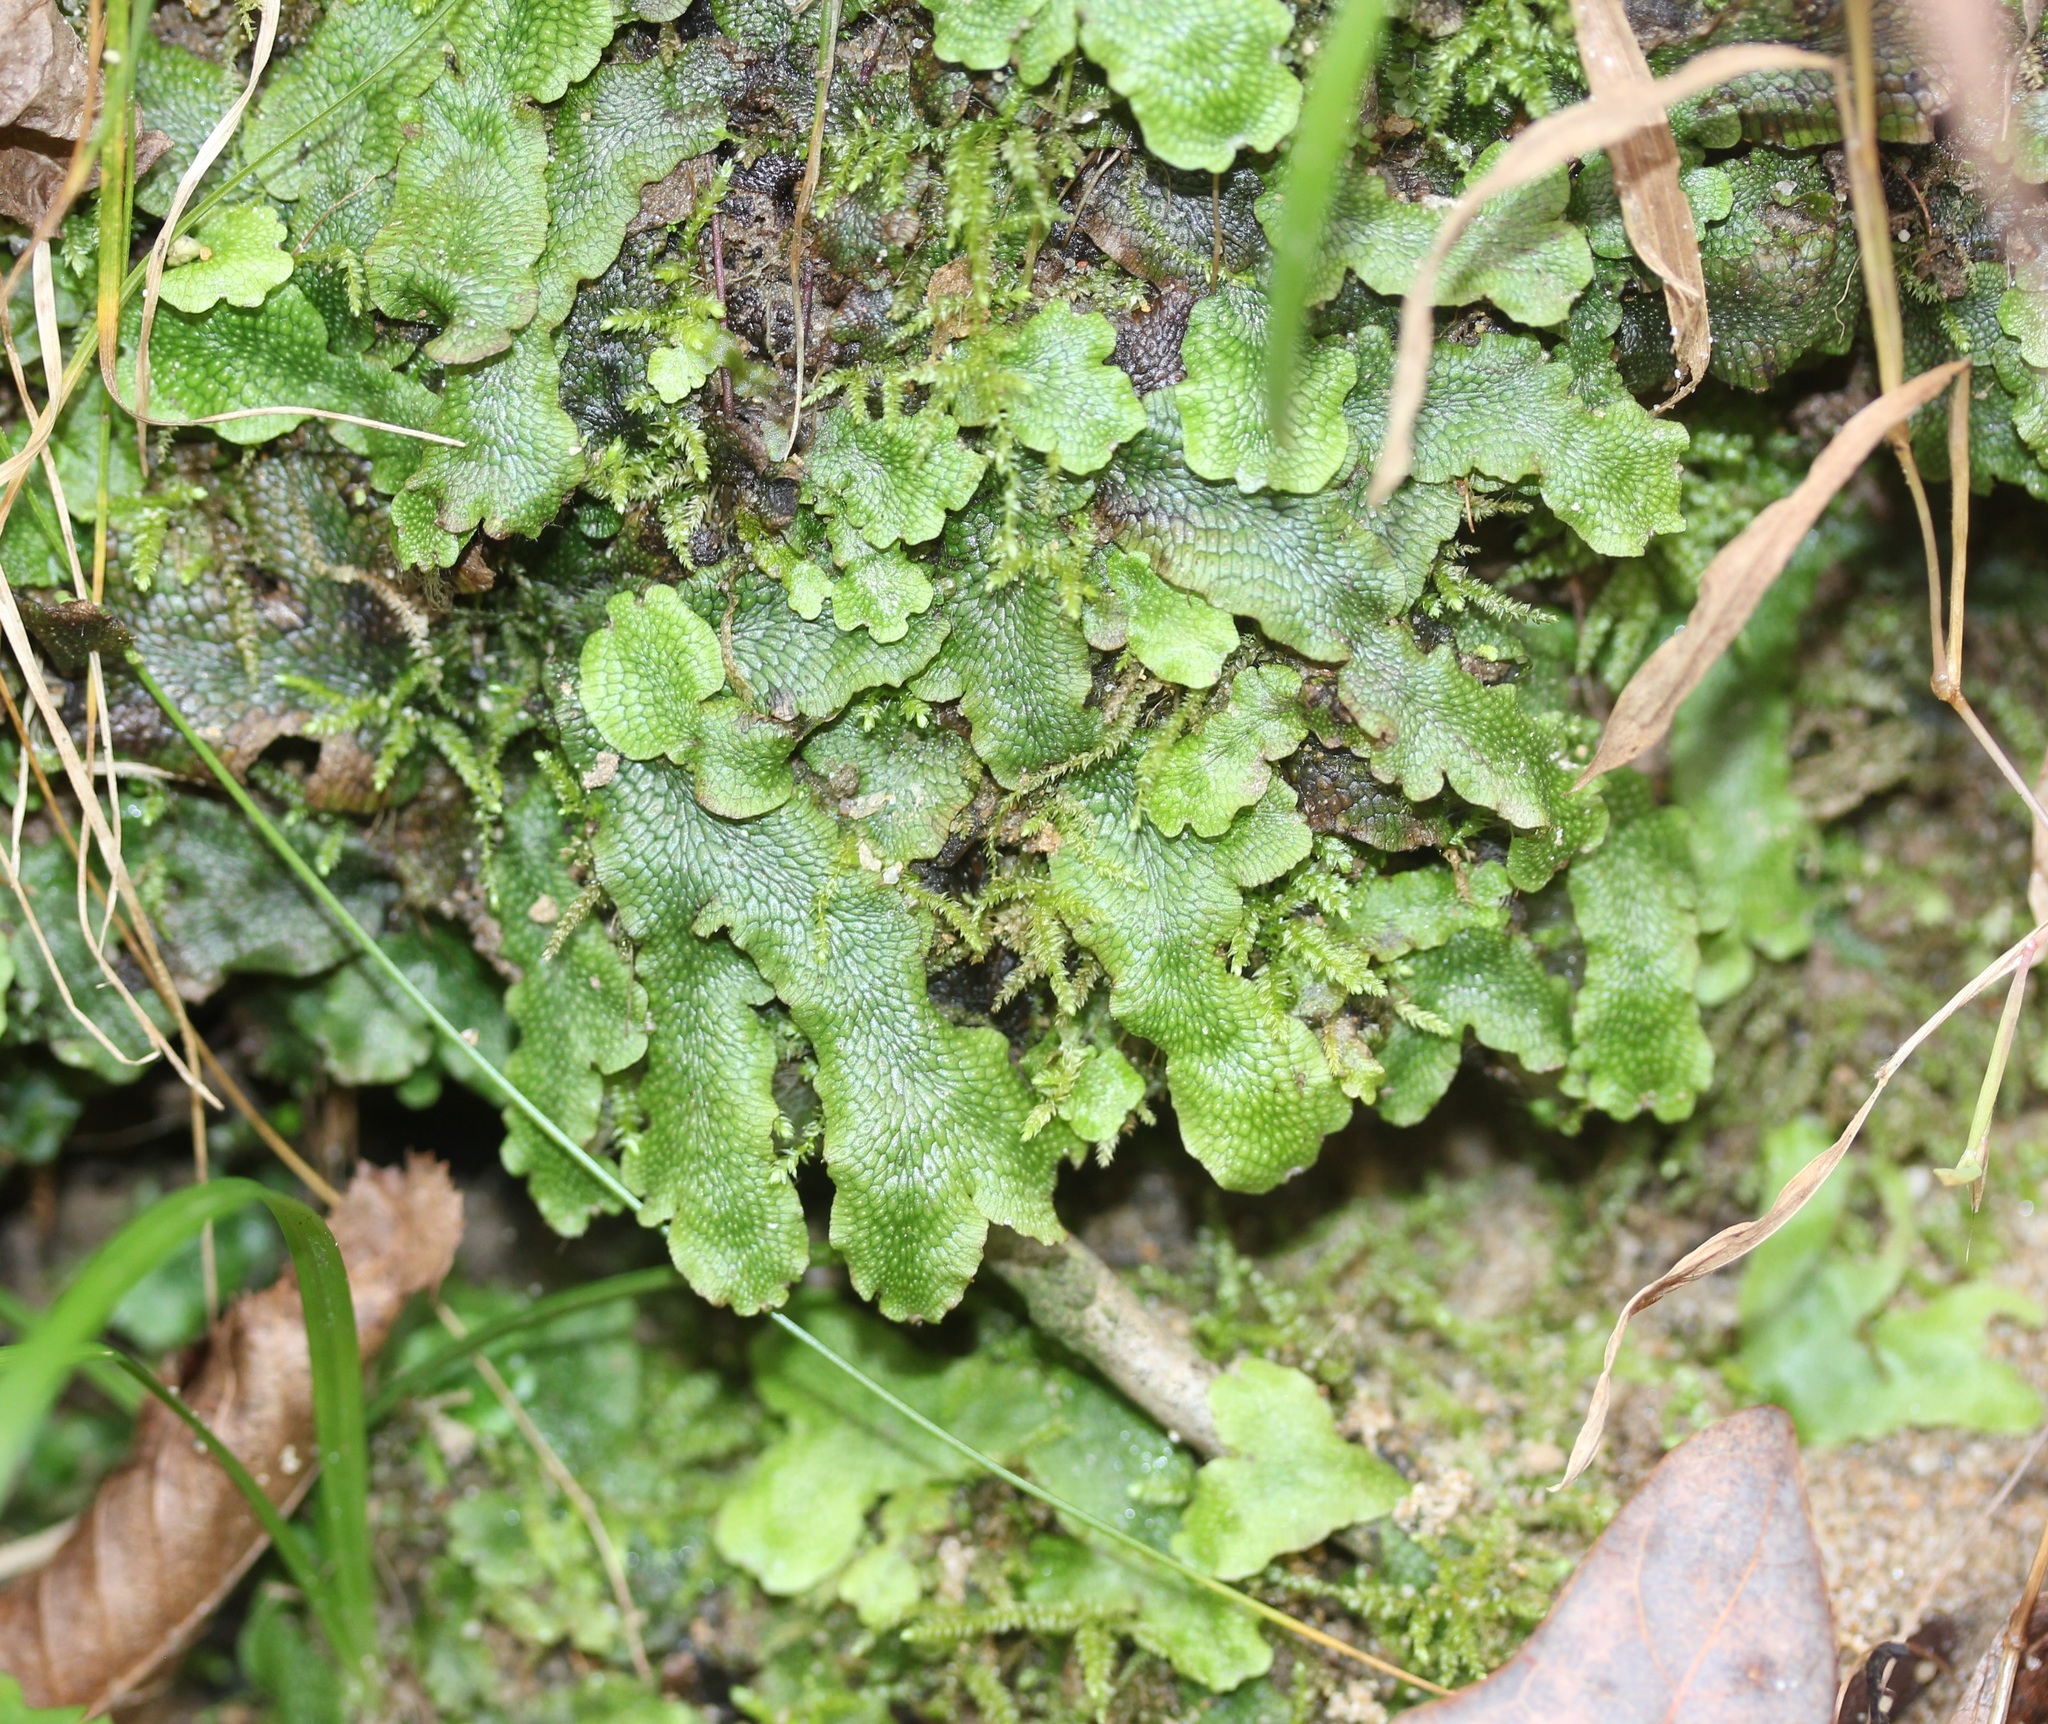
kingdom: Plantae
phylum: Marchantiophyta
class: Marchantiopsida
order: Marchantiales
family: Conocephalaceae
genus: Conocephalum
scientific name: Conocephalum salebrosum
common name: Cat-tongue liverwort
